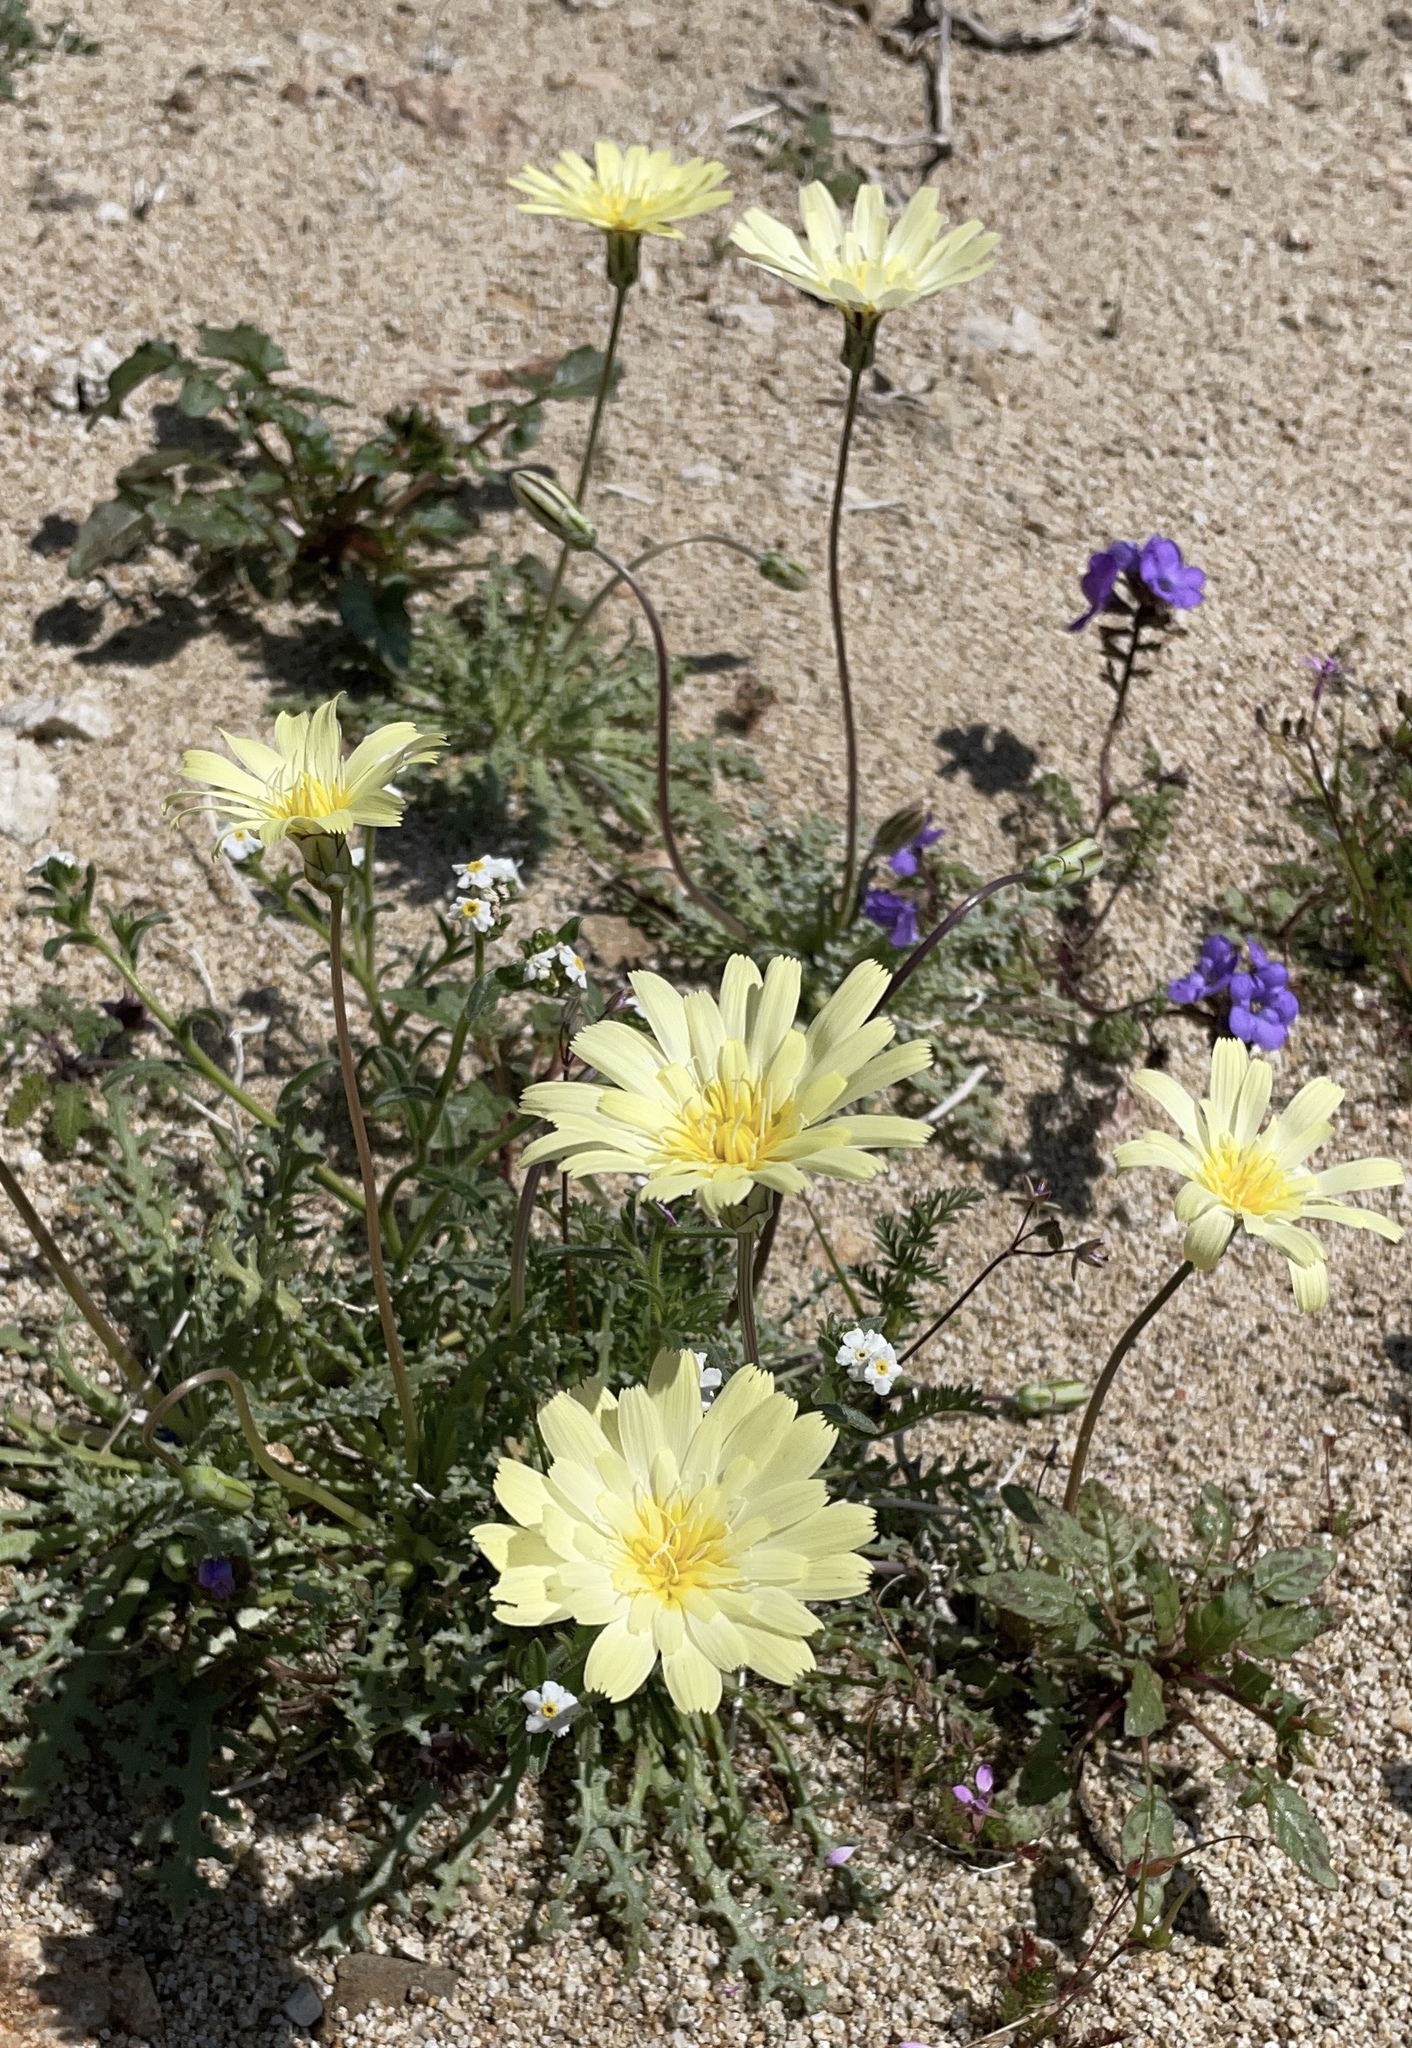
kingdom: Plantae
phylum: Tracheophyta
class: Magnoliopsida
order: Asterales
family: Asteraceae
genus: Anisocoma
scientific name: Anisocoma acaulis
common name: Scalebud
